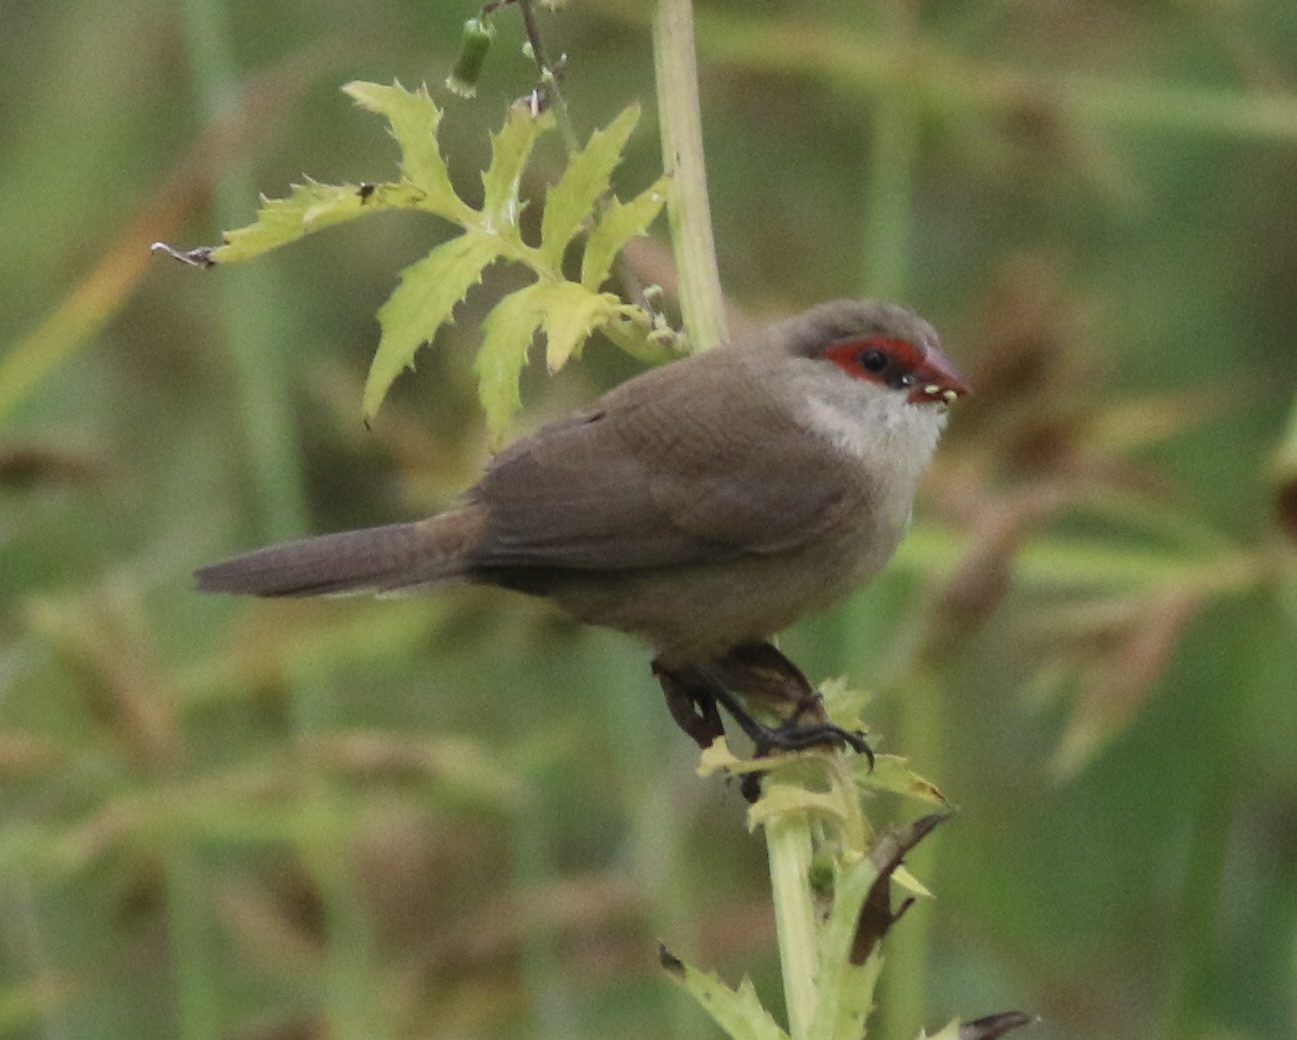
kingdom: Animalia
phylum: Chordata
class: Aves
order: Passeriformes
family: Estrildidae
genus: Estrilda
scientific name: Estrilda astrild
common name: Common waxbill
